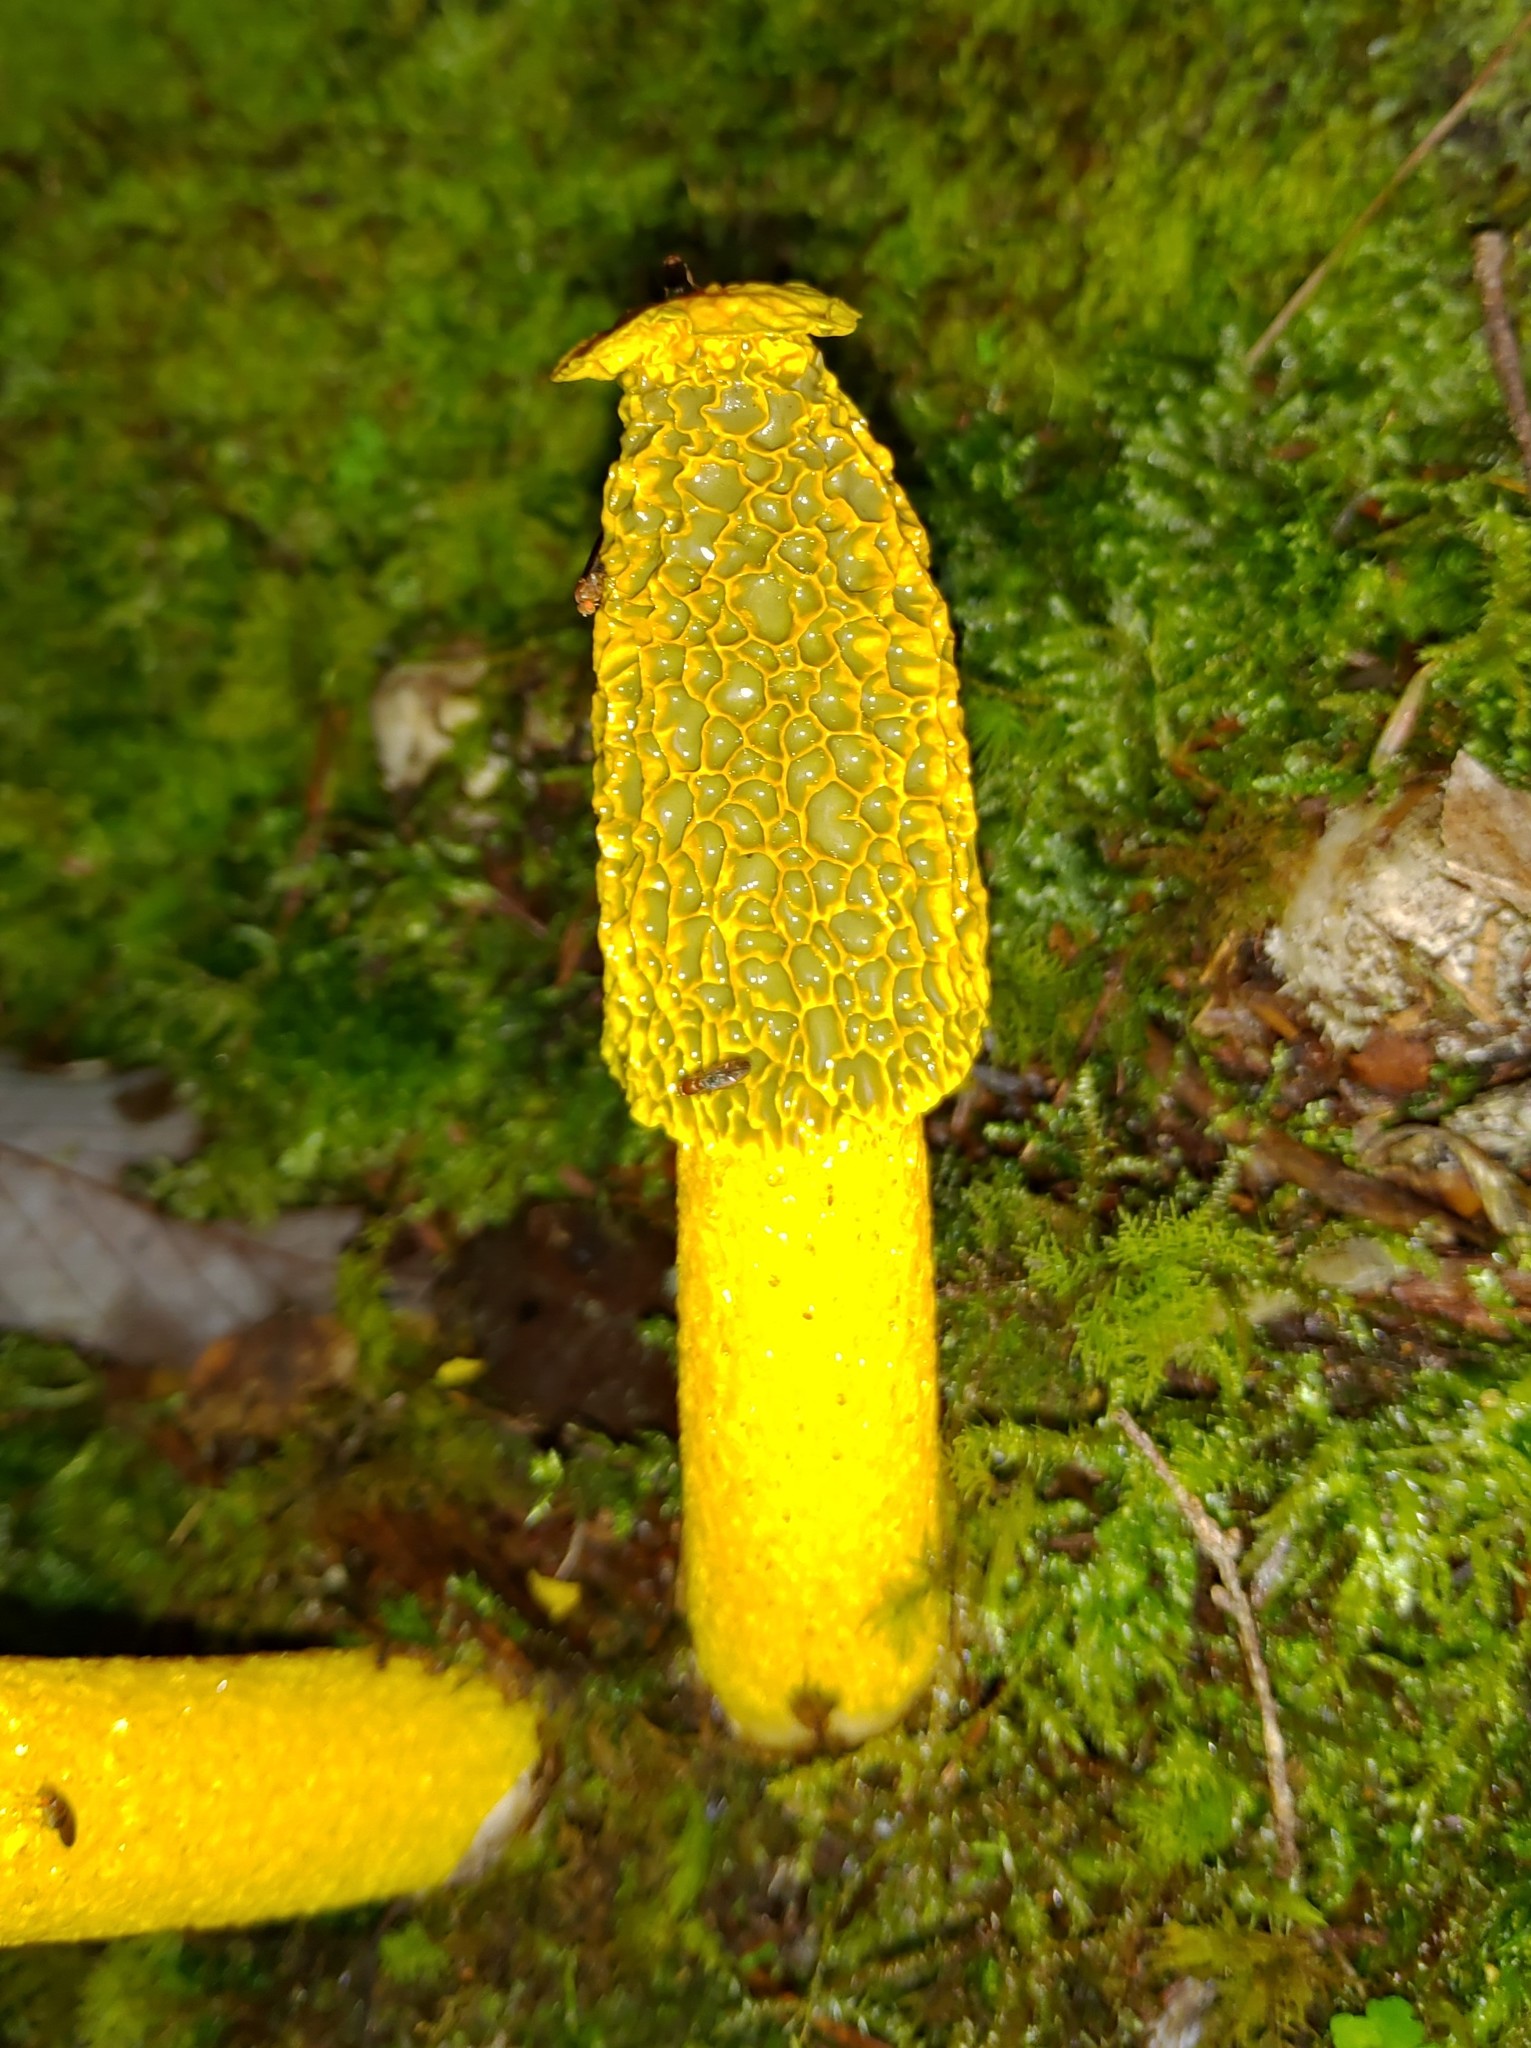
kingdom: Fungi
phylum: Basidiomycota
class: Agaricomycetes
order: Phallales
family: Phallaceae
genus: Phallus
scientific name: Phallus flavocostatus
